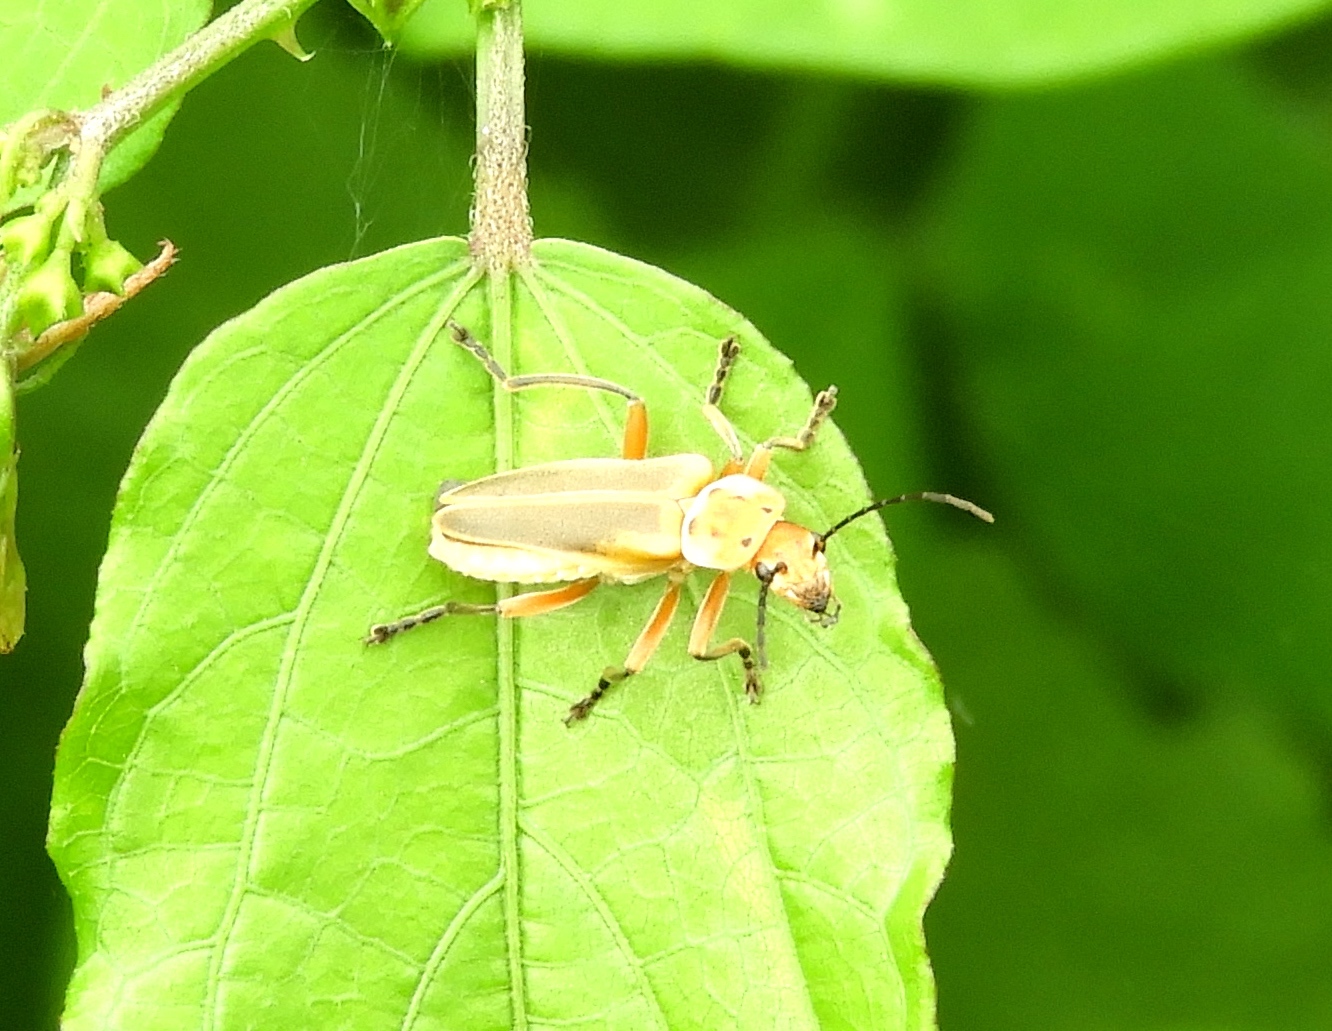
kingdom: Animalia
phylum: Arthropoda
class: Insecta
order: Coleoptera
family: Cantharidae
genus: Chauliognathus
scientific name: Chauliognathus
